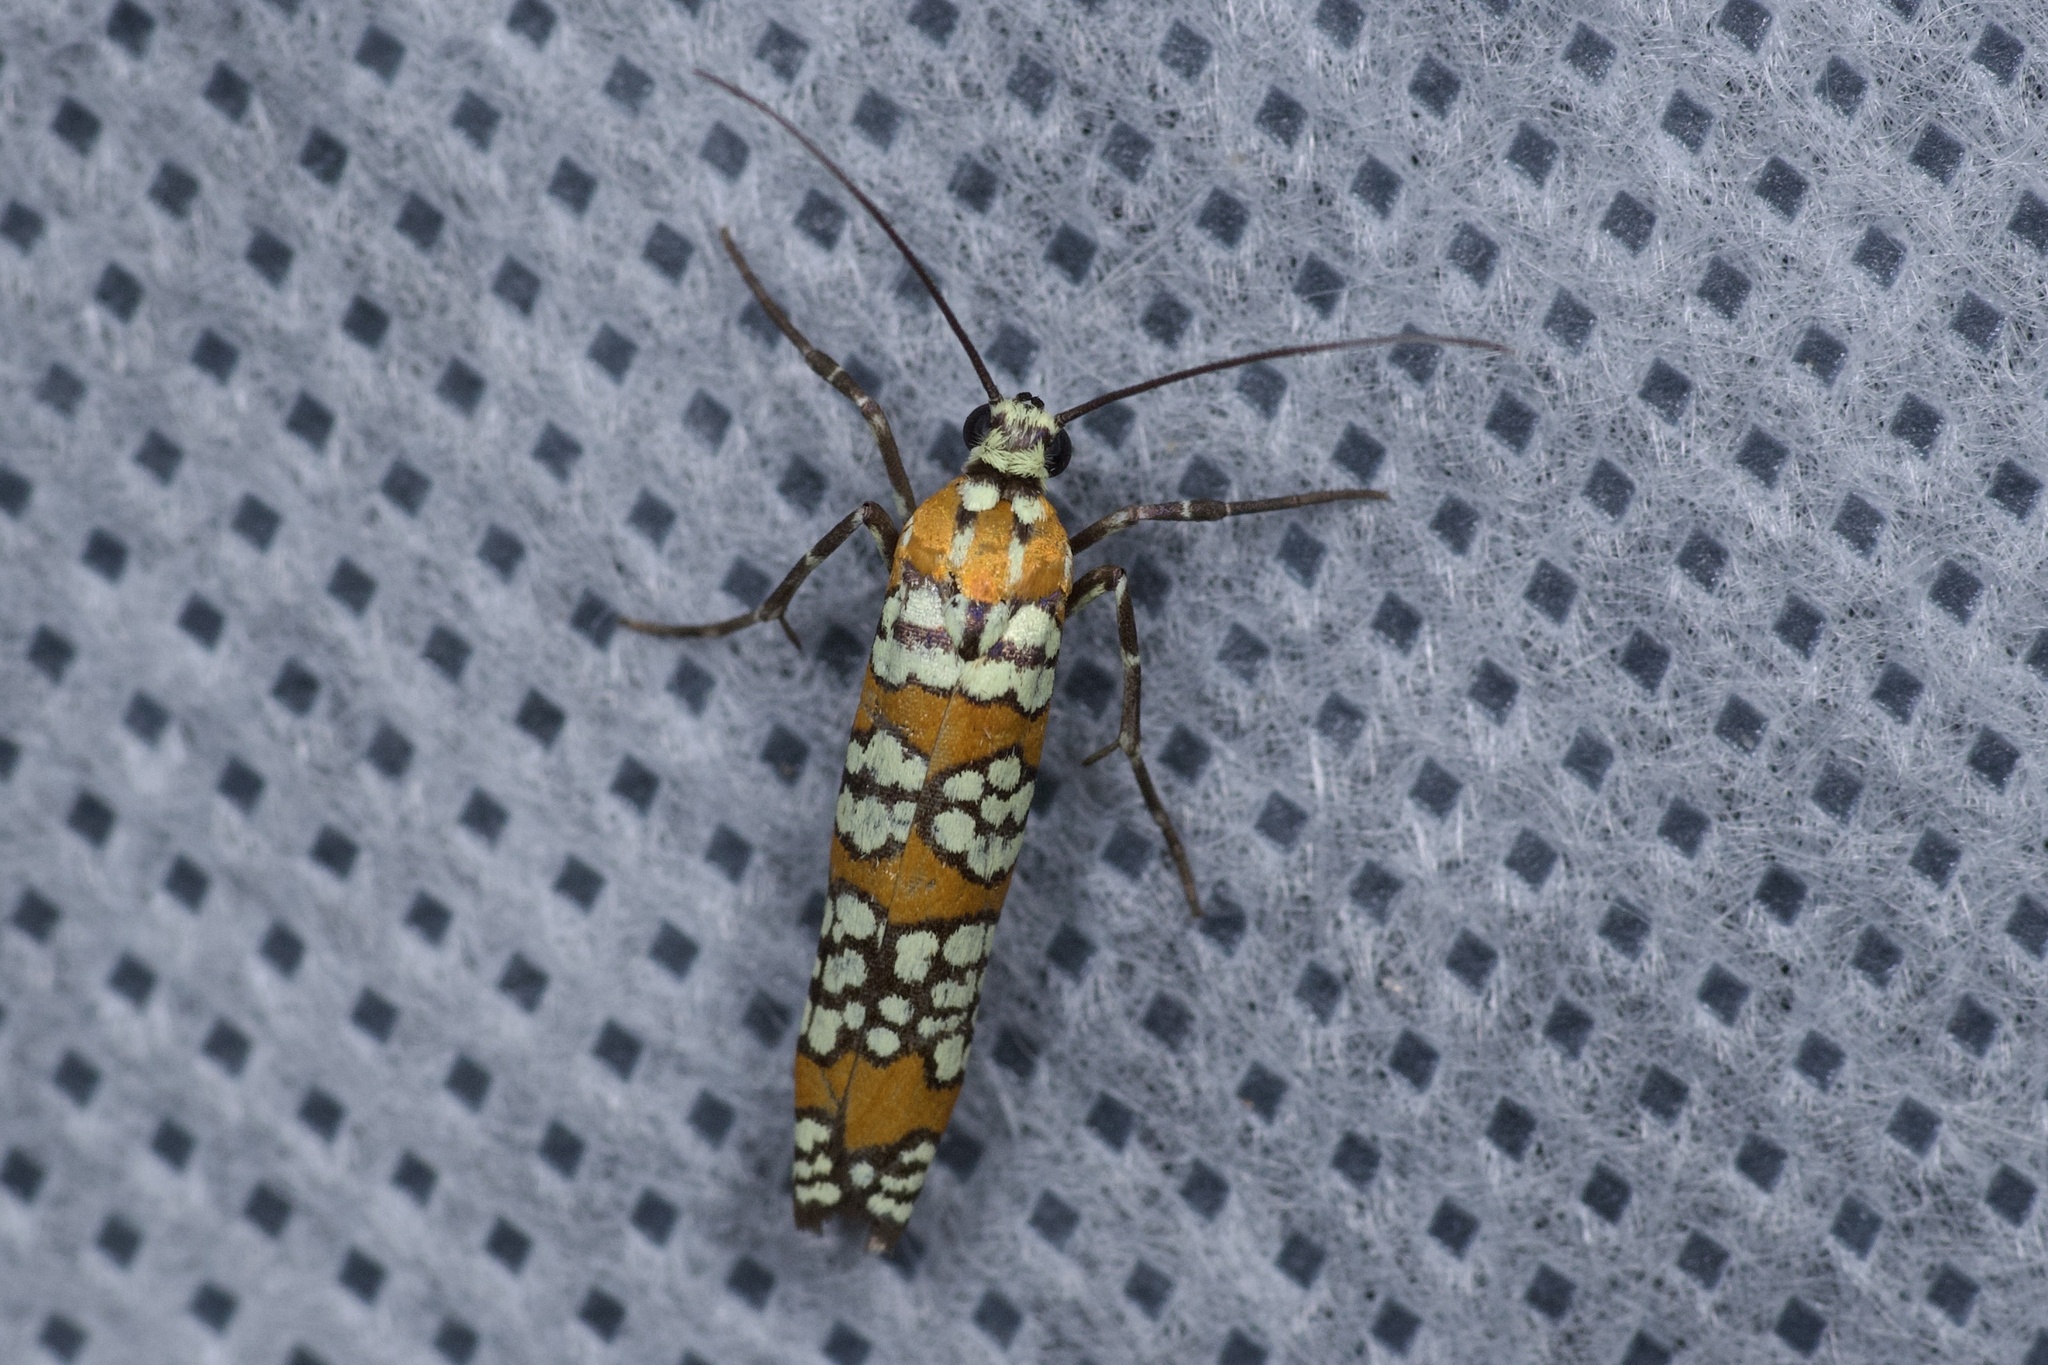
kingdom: Animalia
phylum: Arthropoda
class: Insecta
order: Lepidoptera
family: Attevidae
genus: Atteva
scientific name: Atteva punctella
